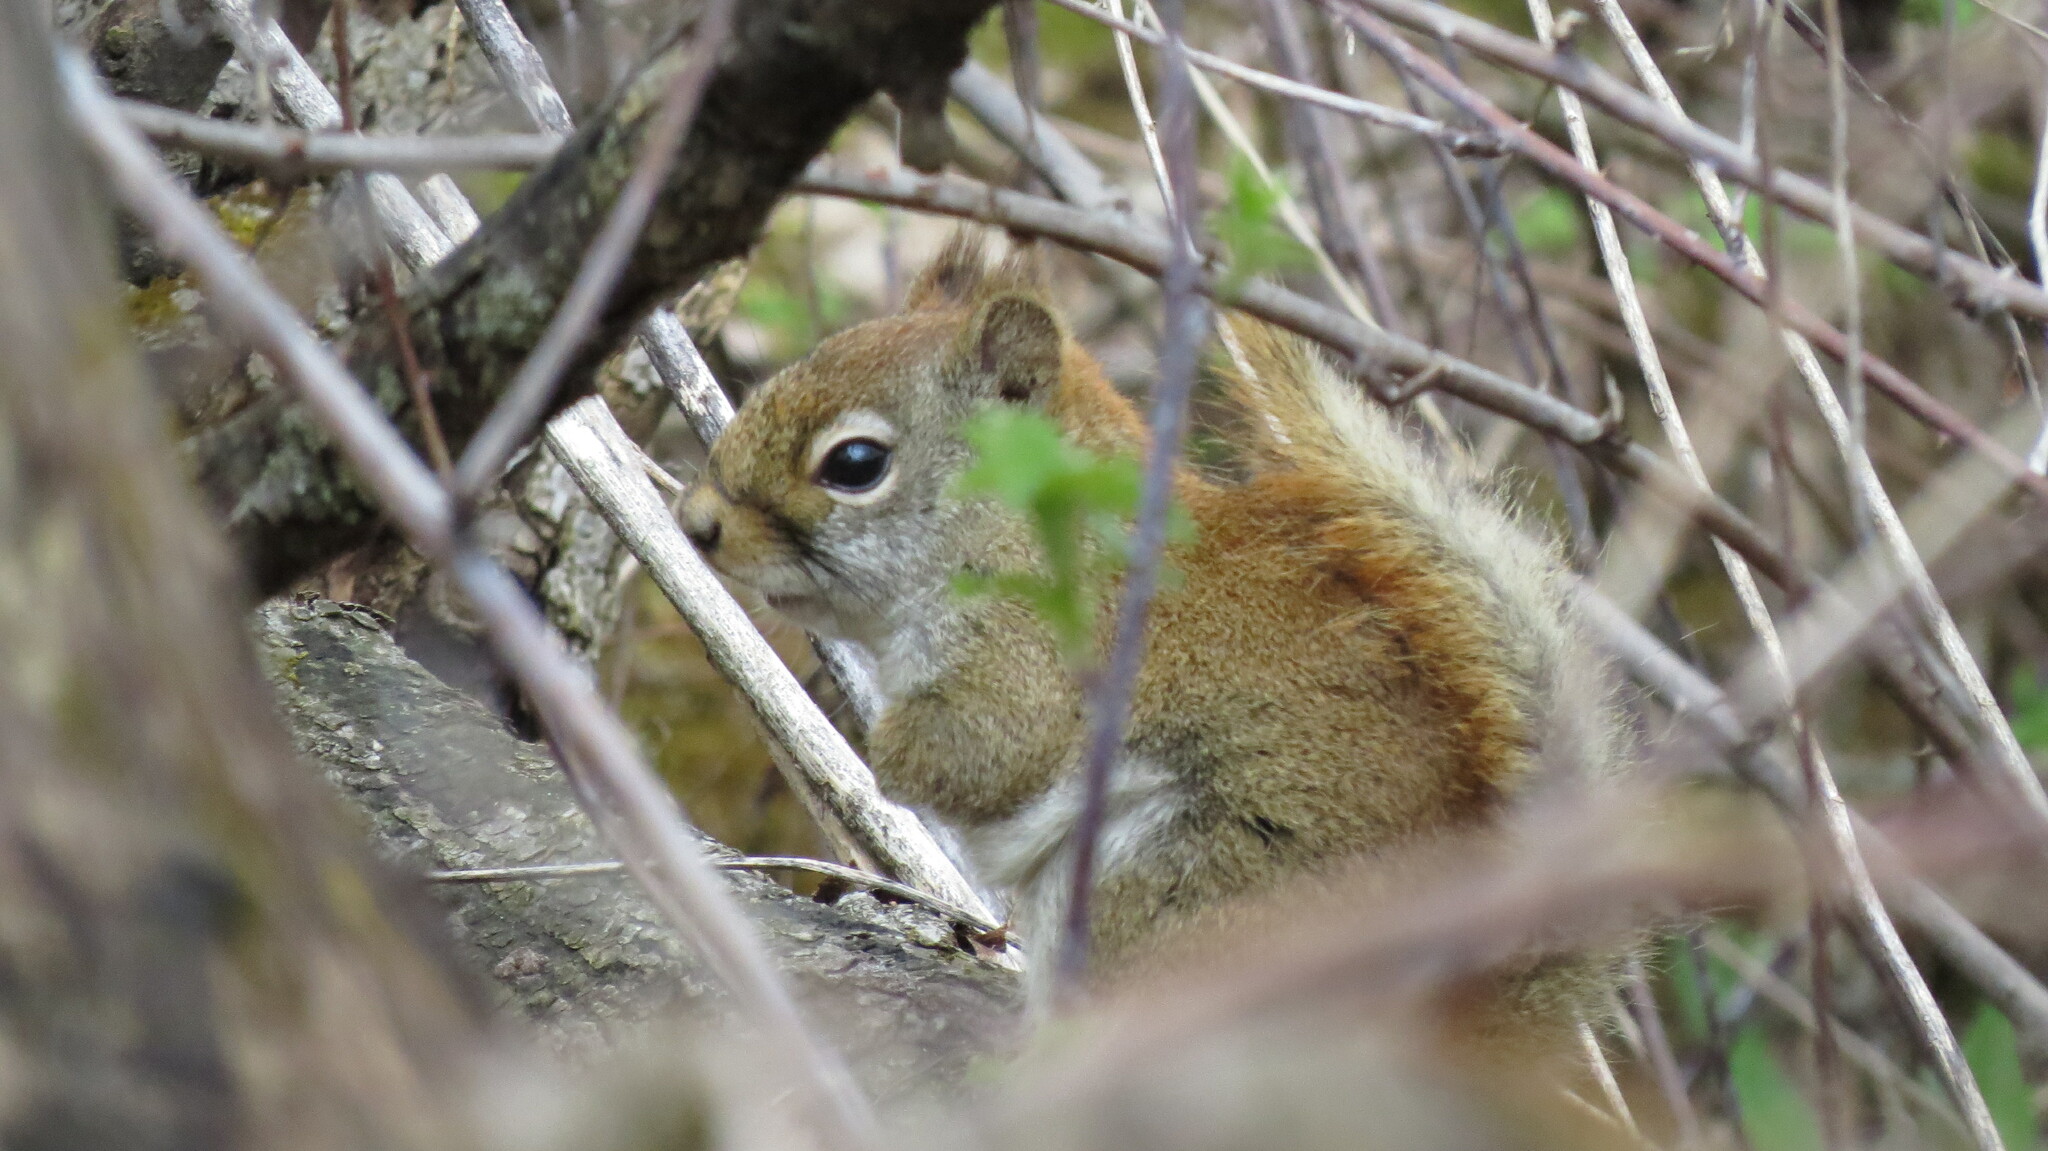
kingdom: Animalia
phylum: Chordata
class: Mammalia
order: Rodentia
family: Sciuridae
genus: Tamiasciurus
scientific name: Tamiasciurus hudsonicus
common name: Red squirrel
